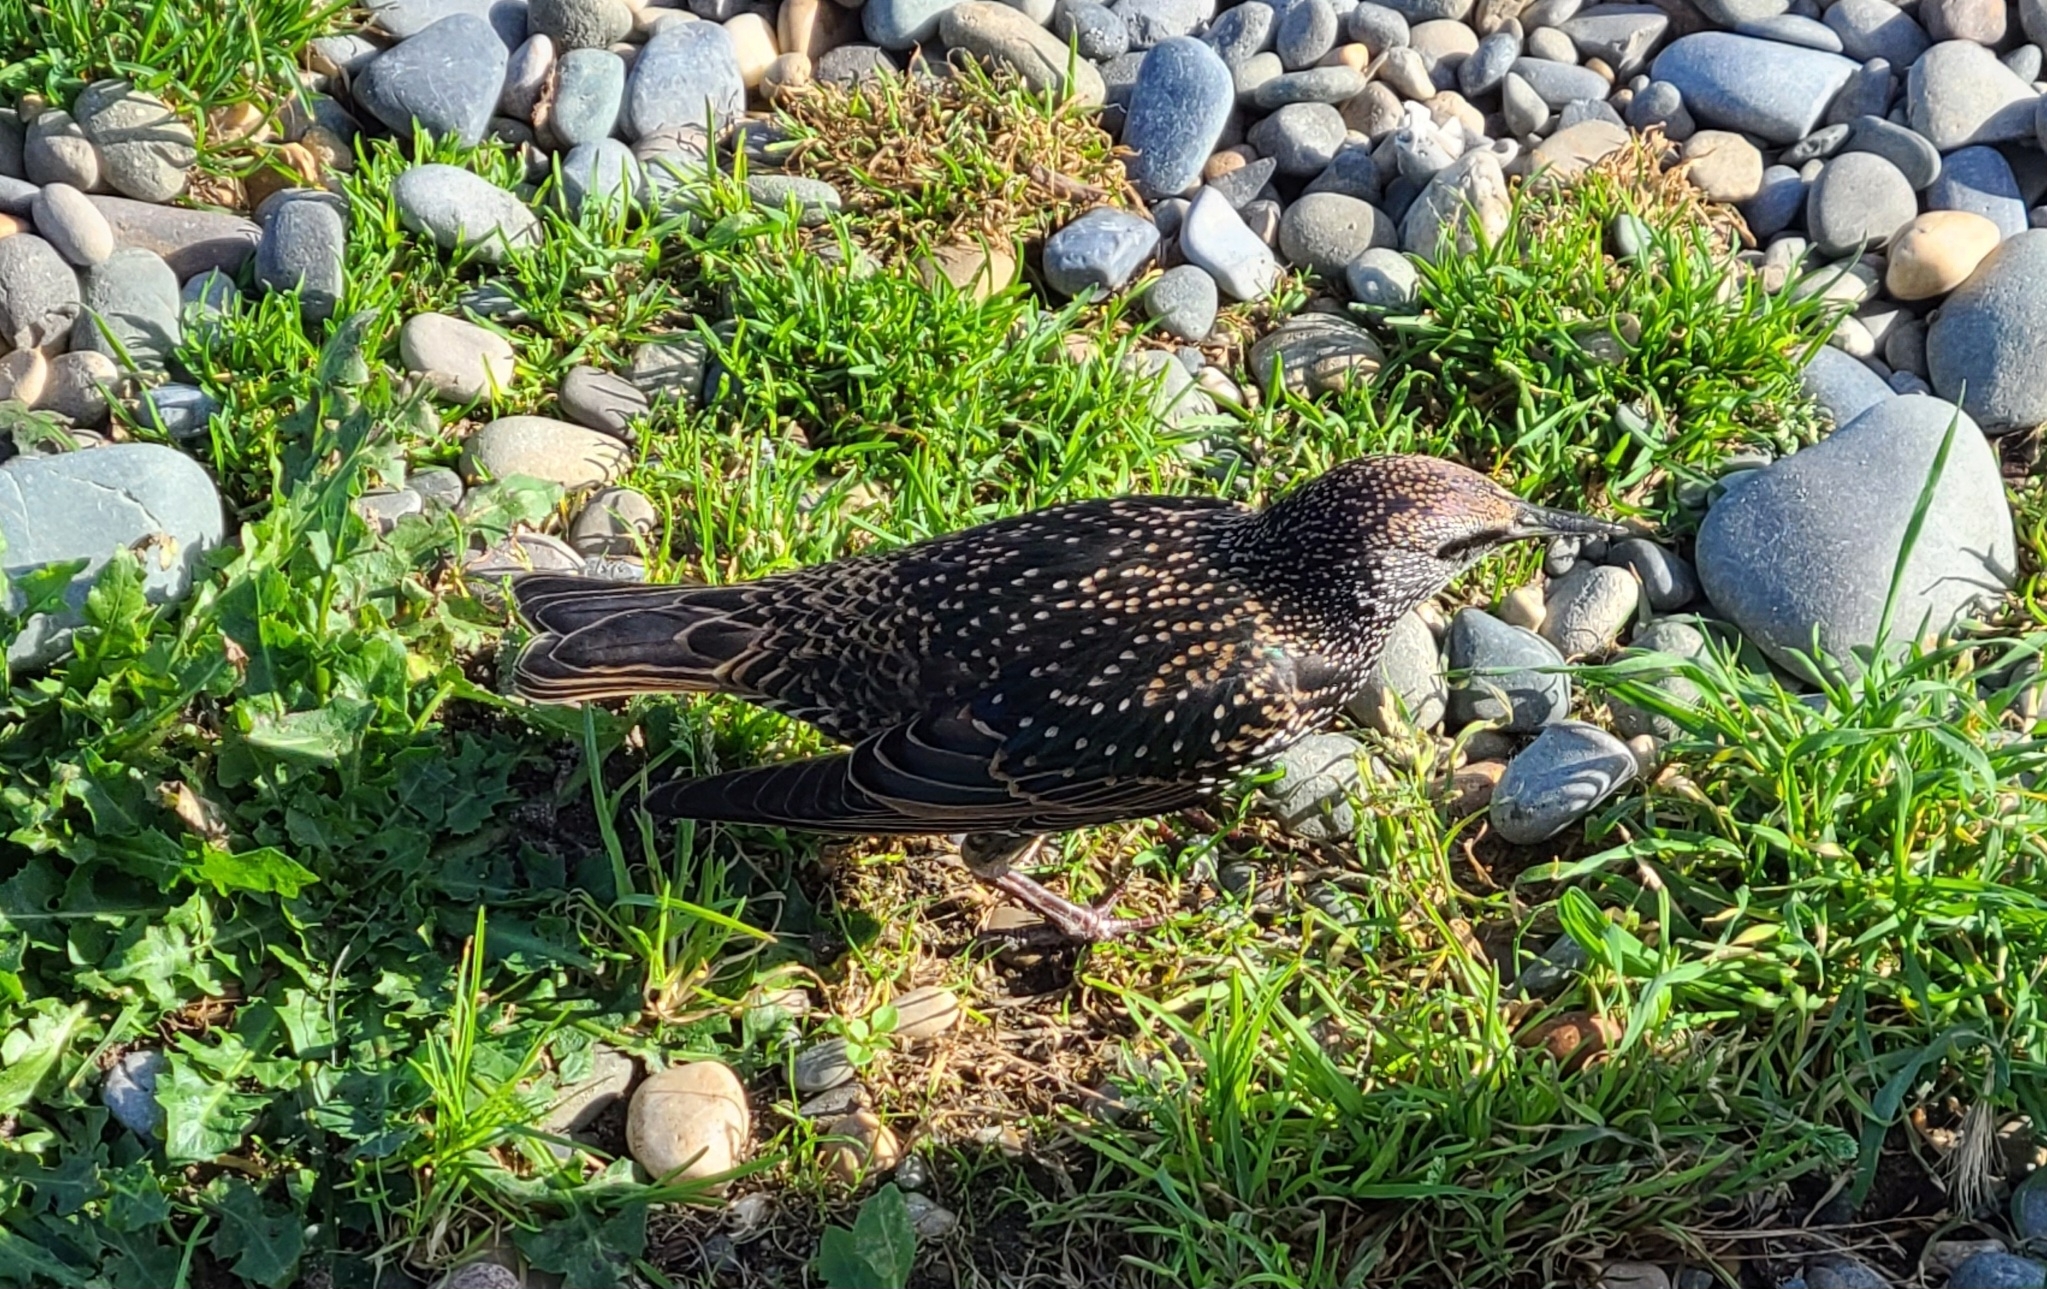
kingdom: Animalia
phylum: Chordata
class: Aves
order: Passeriformes
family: Sturnidae
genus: Sturnus
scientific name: Sturnus vulgaris
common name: Common starling
